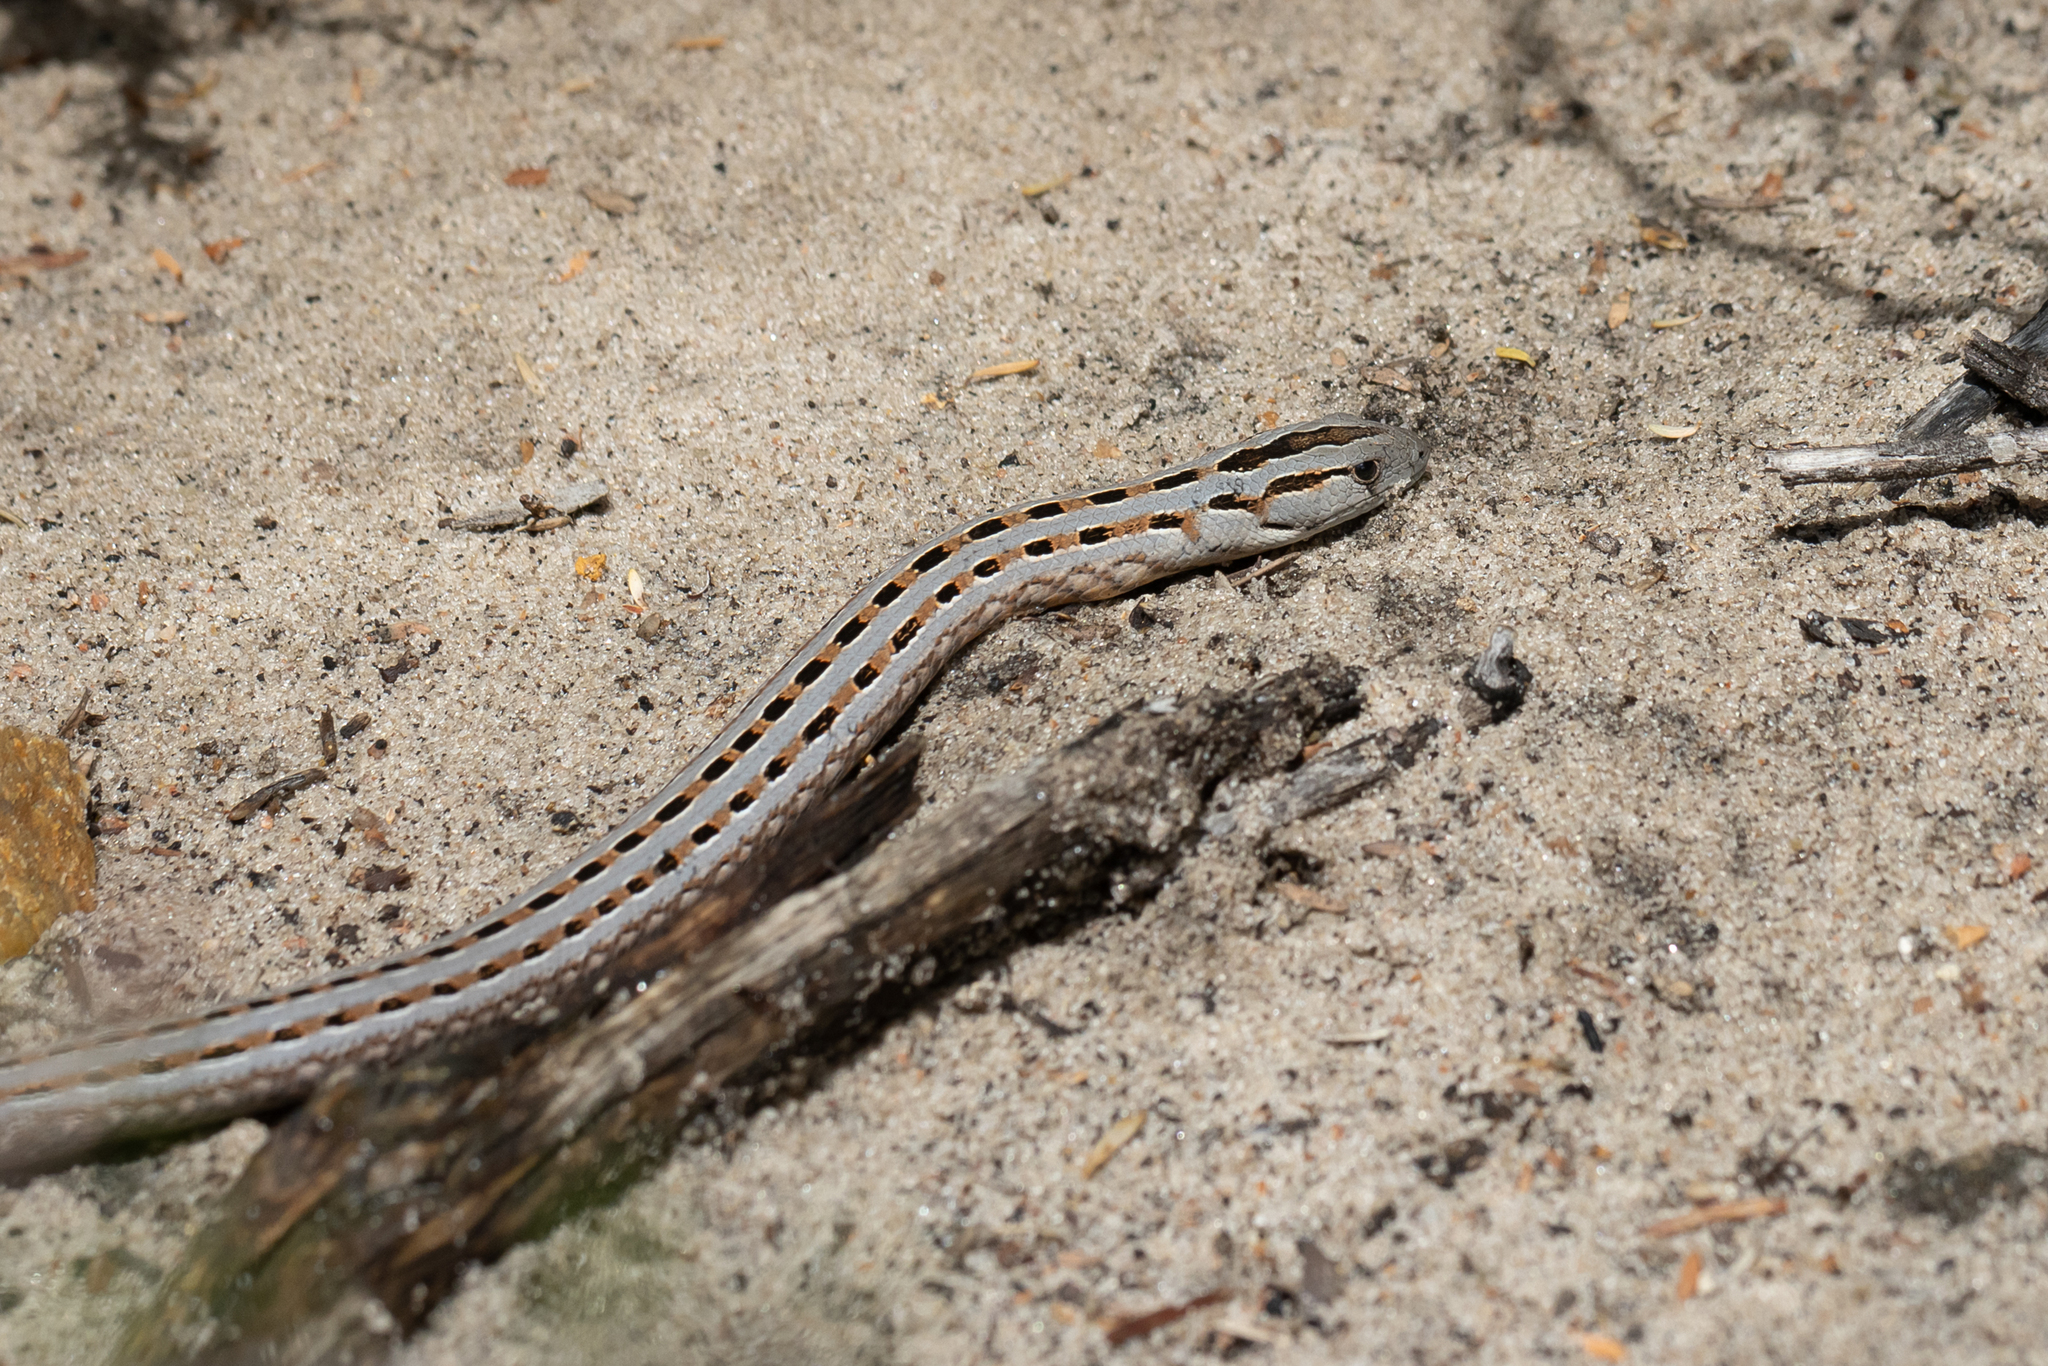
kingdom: Animalia
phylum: Chordata
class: Squamata
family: Pygopodidae
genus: Pygopus
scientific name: Pygopus lepidopodus
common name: Southern scaly-foot
